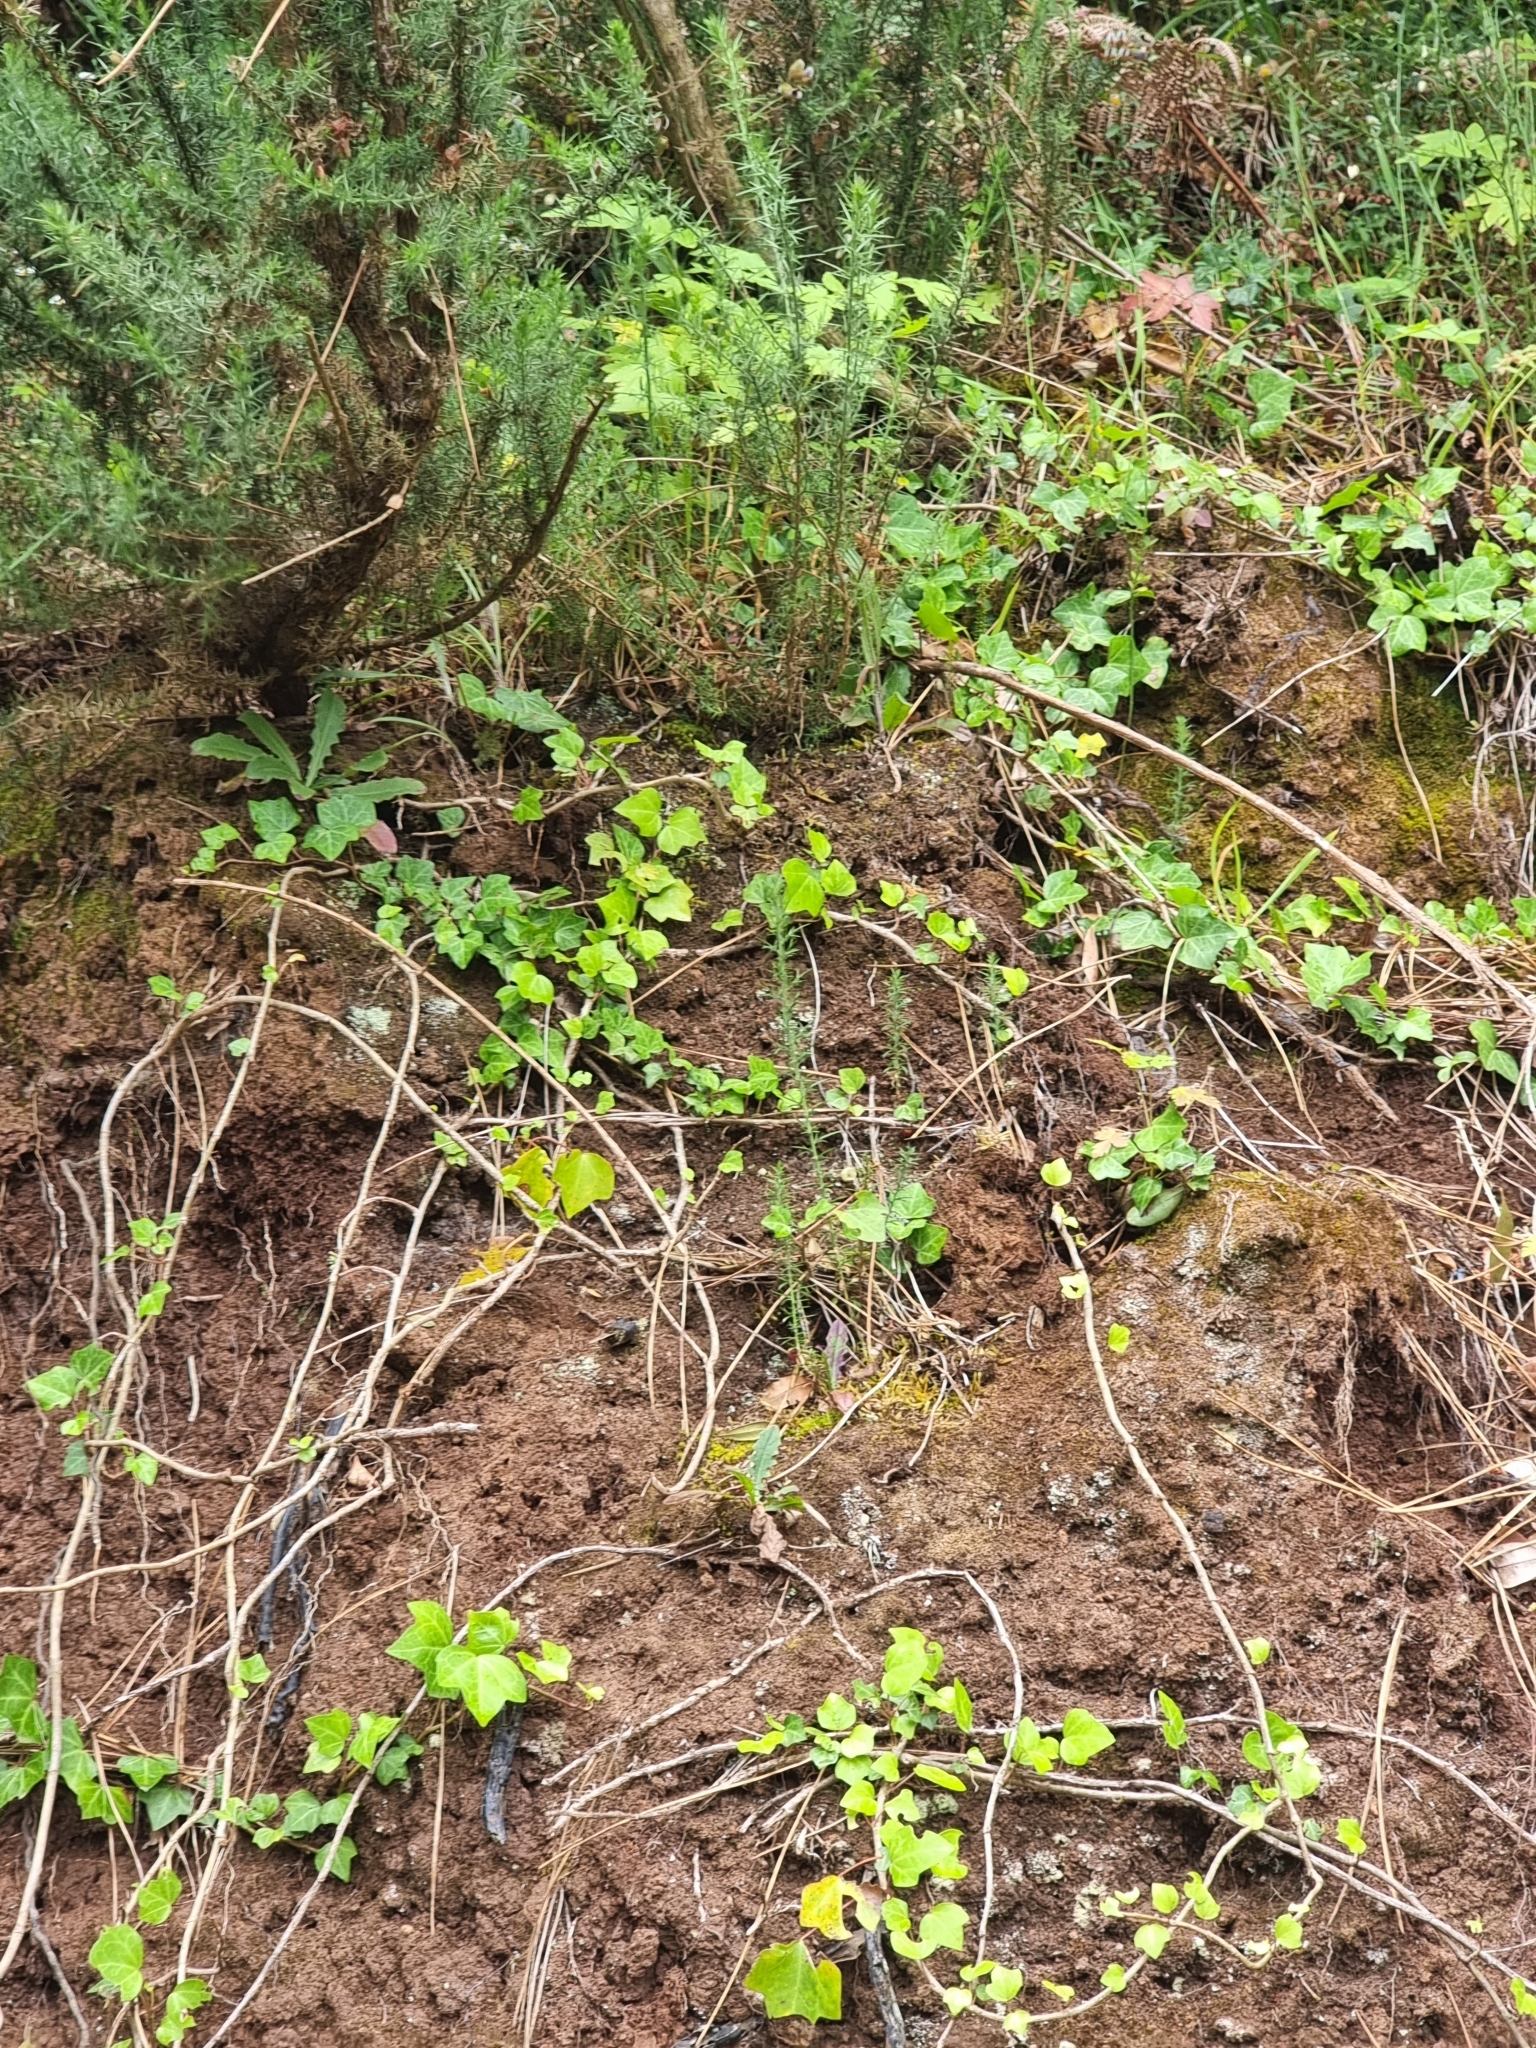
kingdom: Plantae
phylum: Tracheophyta
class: Magnoliopsida
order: Apiales
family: Araliaceae
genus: Hedera
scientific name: Hedera maderensis
